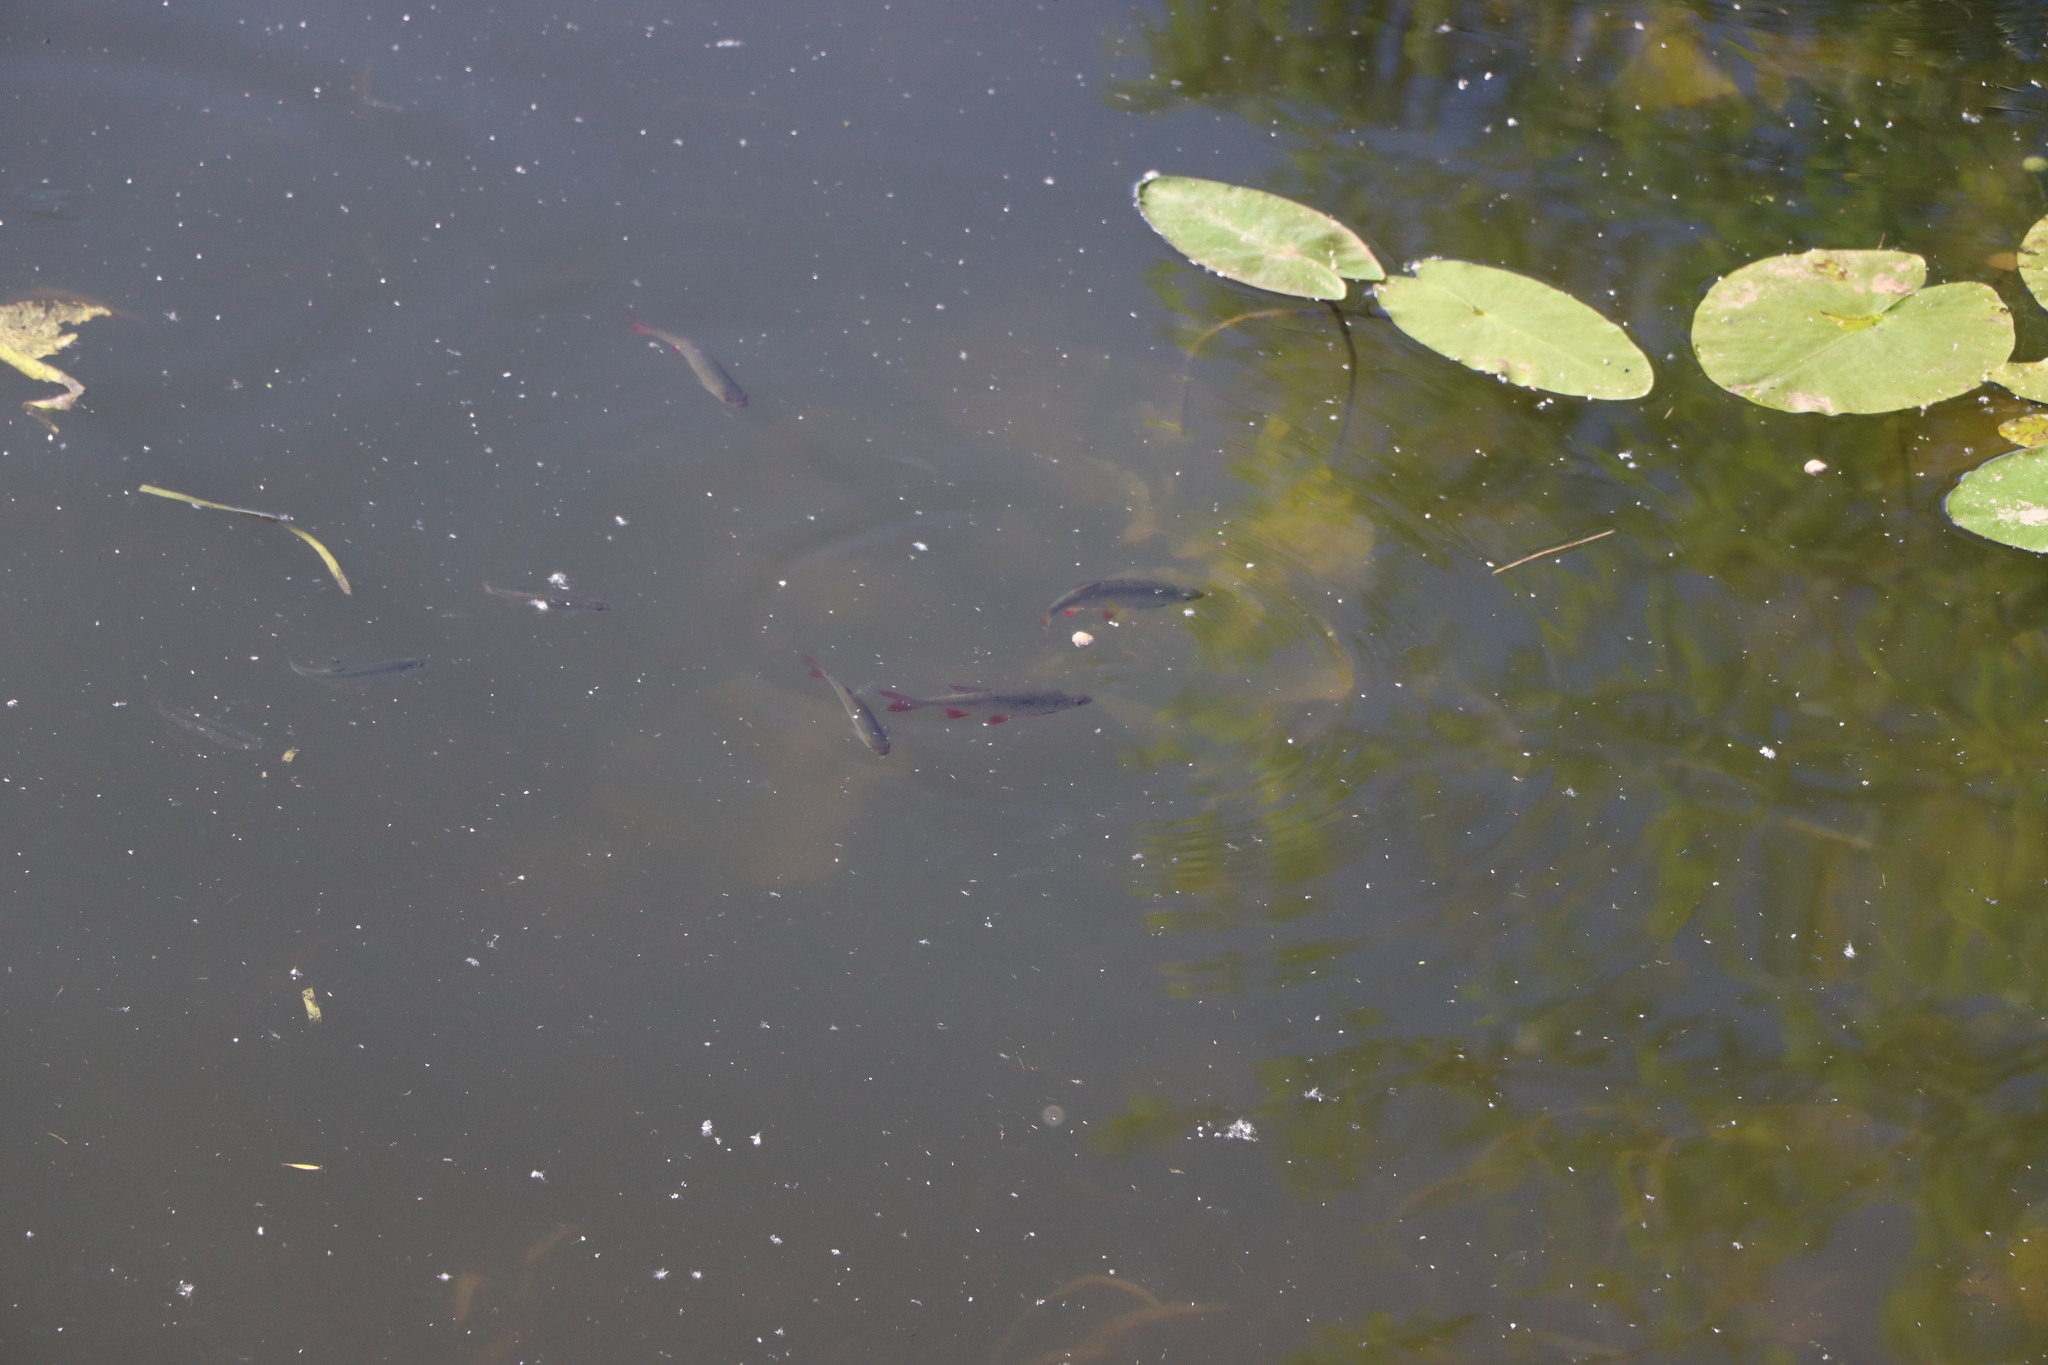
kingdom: Animalia
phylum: Chordata
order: Cypriniformes
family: Cyprinidae
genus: Scardinius
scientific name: Scardinius erythrophthalmus
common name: Rudd
